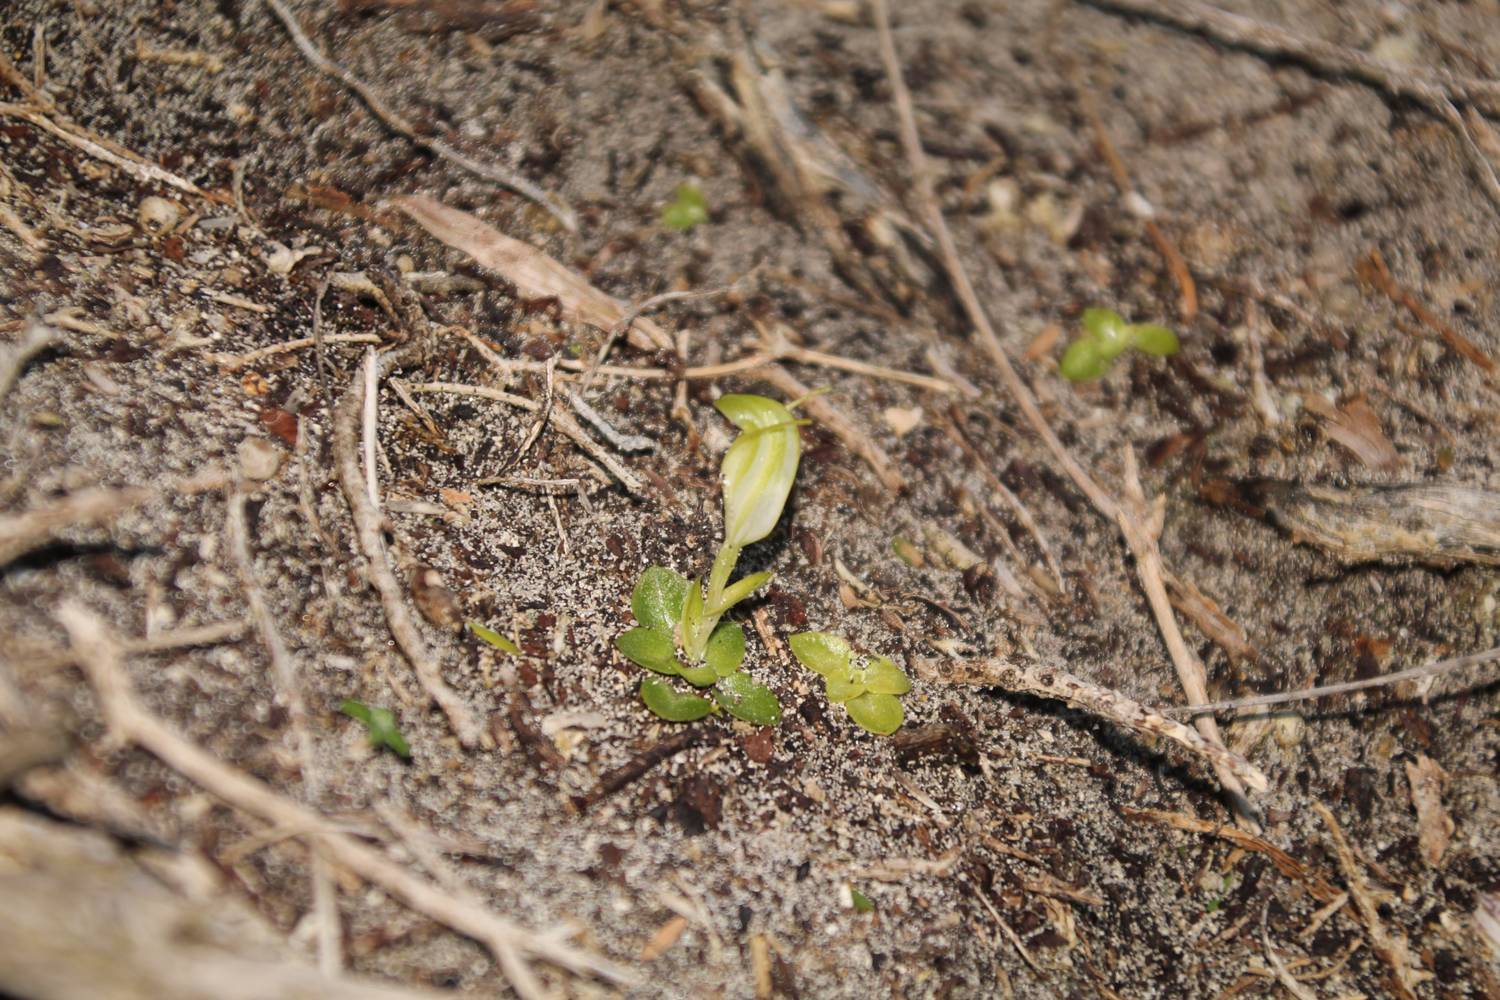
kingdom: Plantae
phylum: Tracheophyta
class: Liliopsida
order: Asparagales
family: Orchidaceae
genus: Pterostylis
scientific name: Pterostylis lortensis
